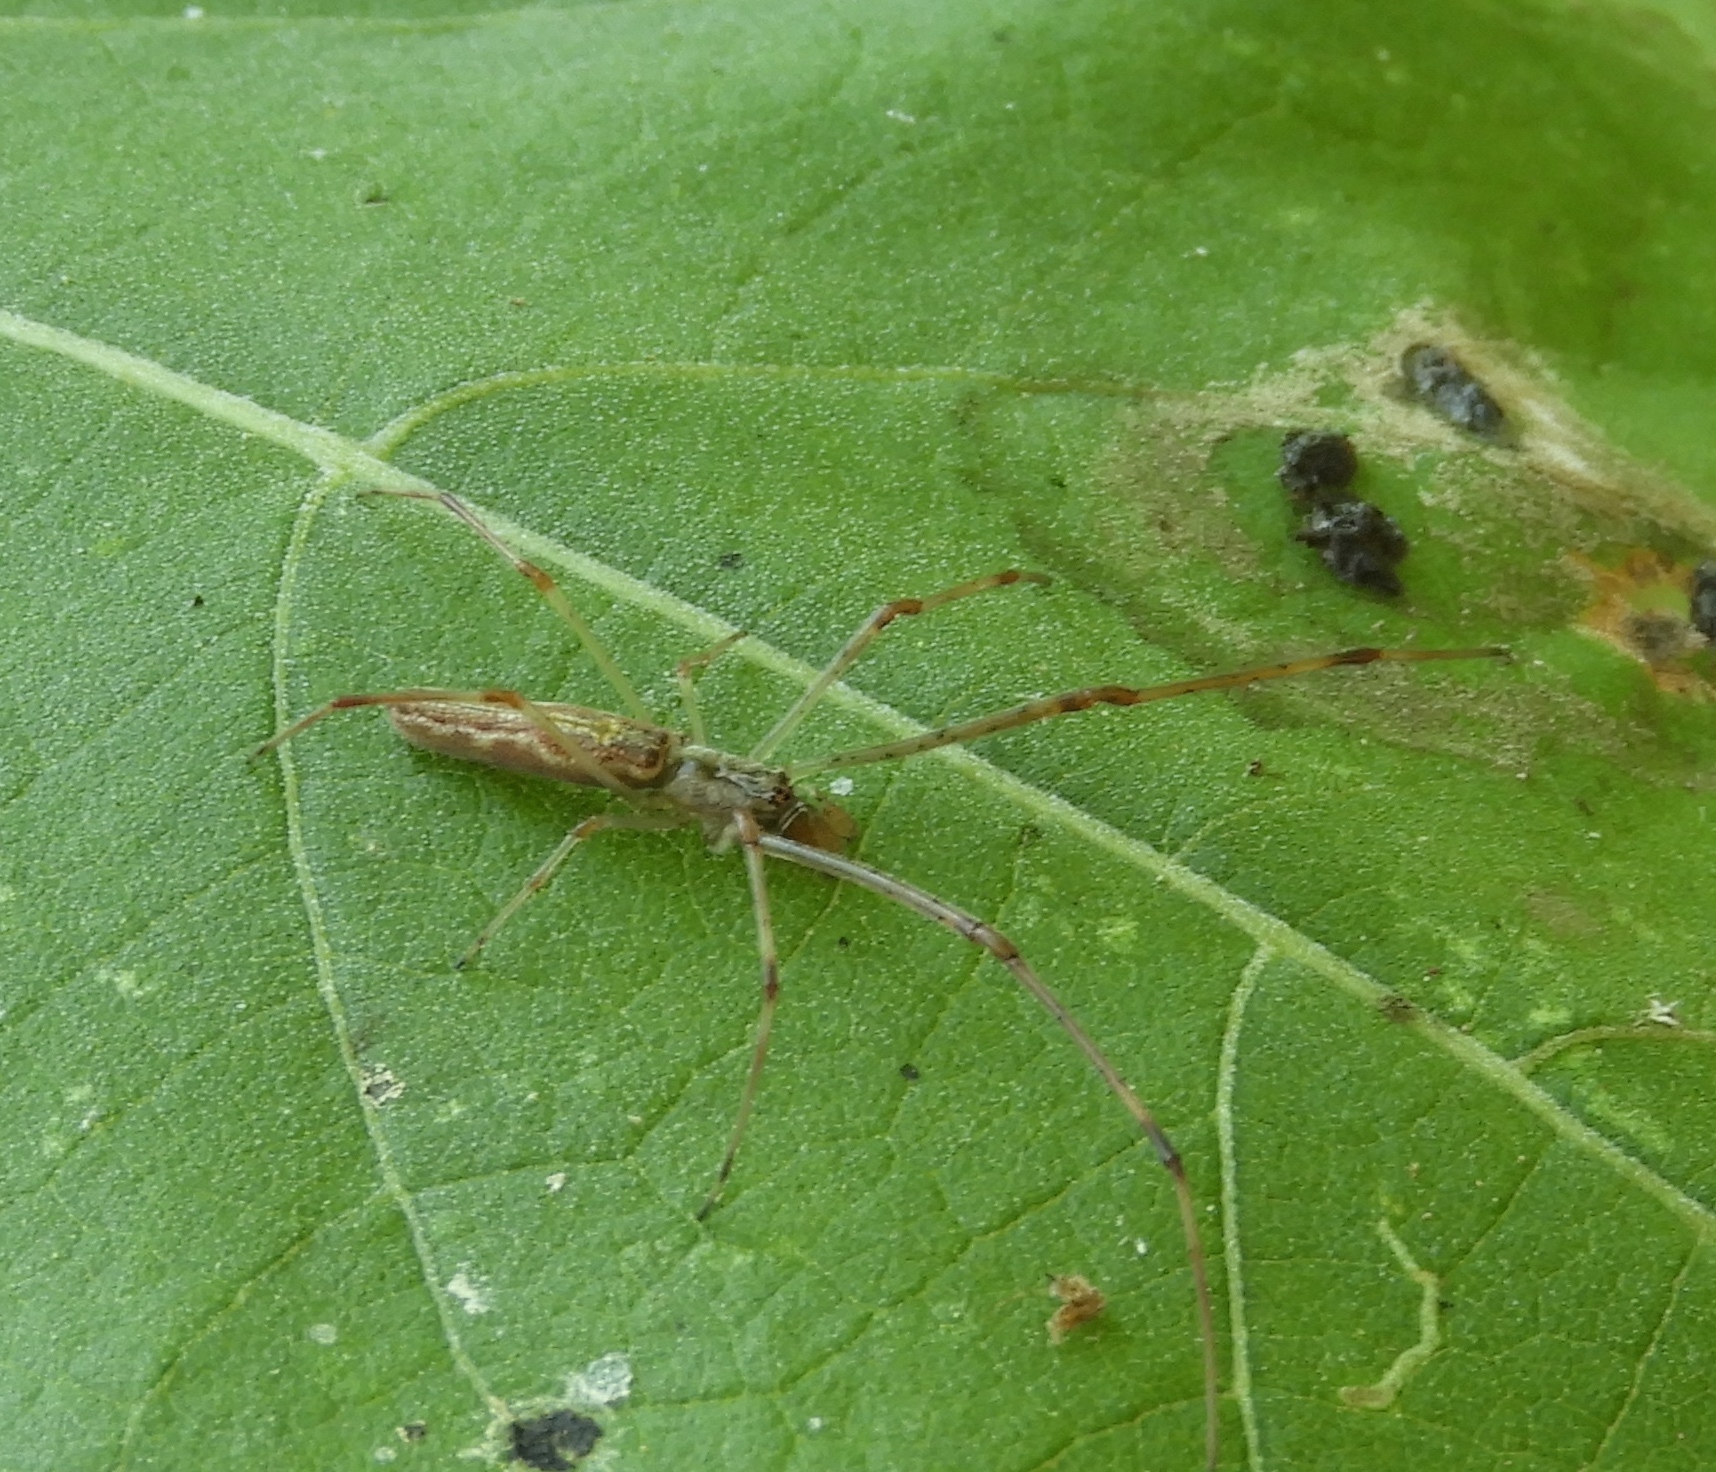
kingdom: Animalia
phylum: Arthropoda
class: Arachnida
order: Araneae
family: Tetragnathidae
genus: Tetragnatha
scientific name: Tetragnatha
